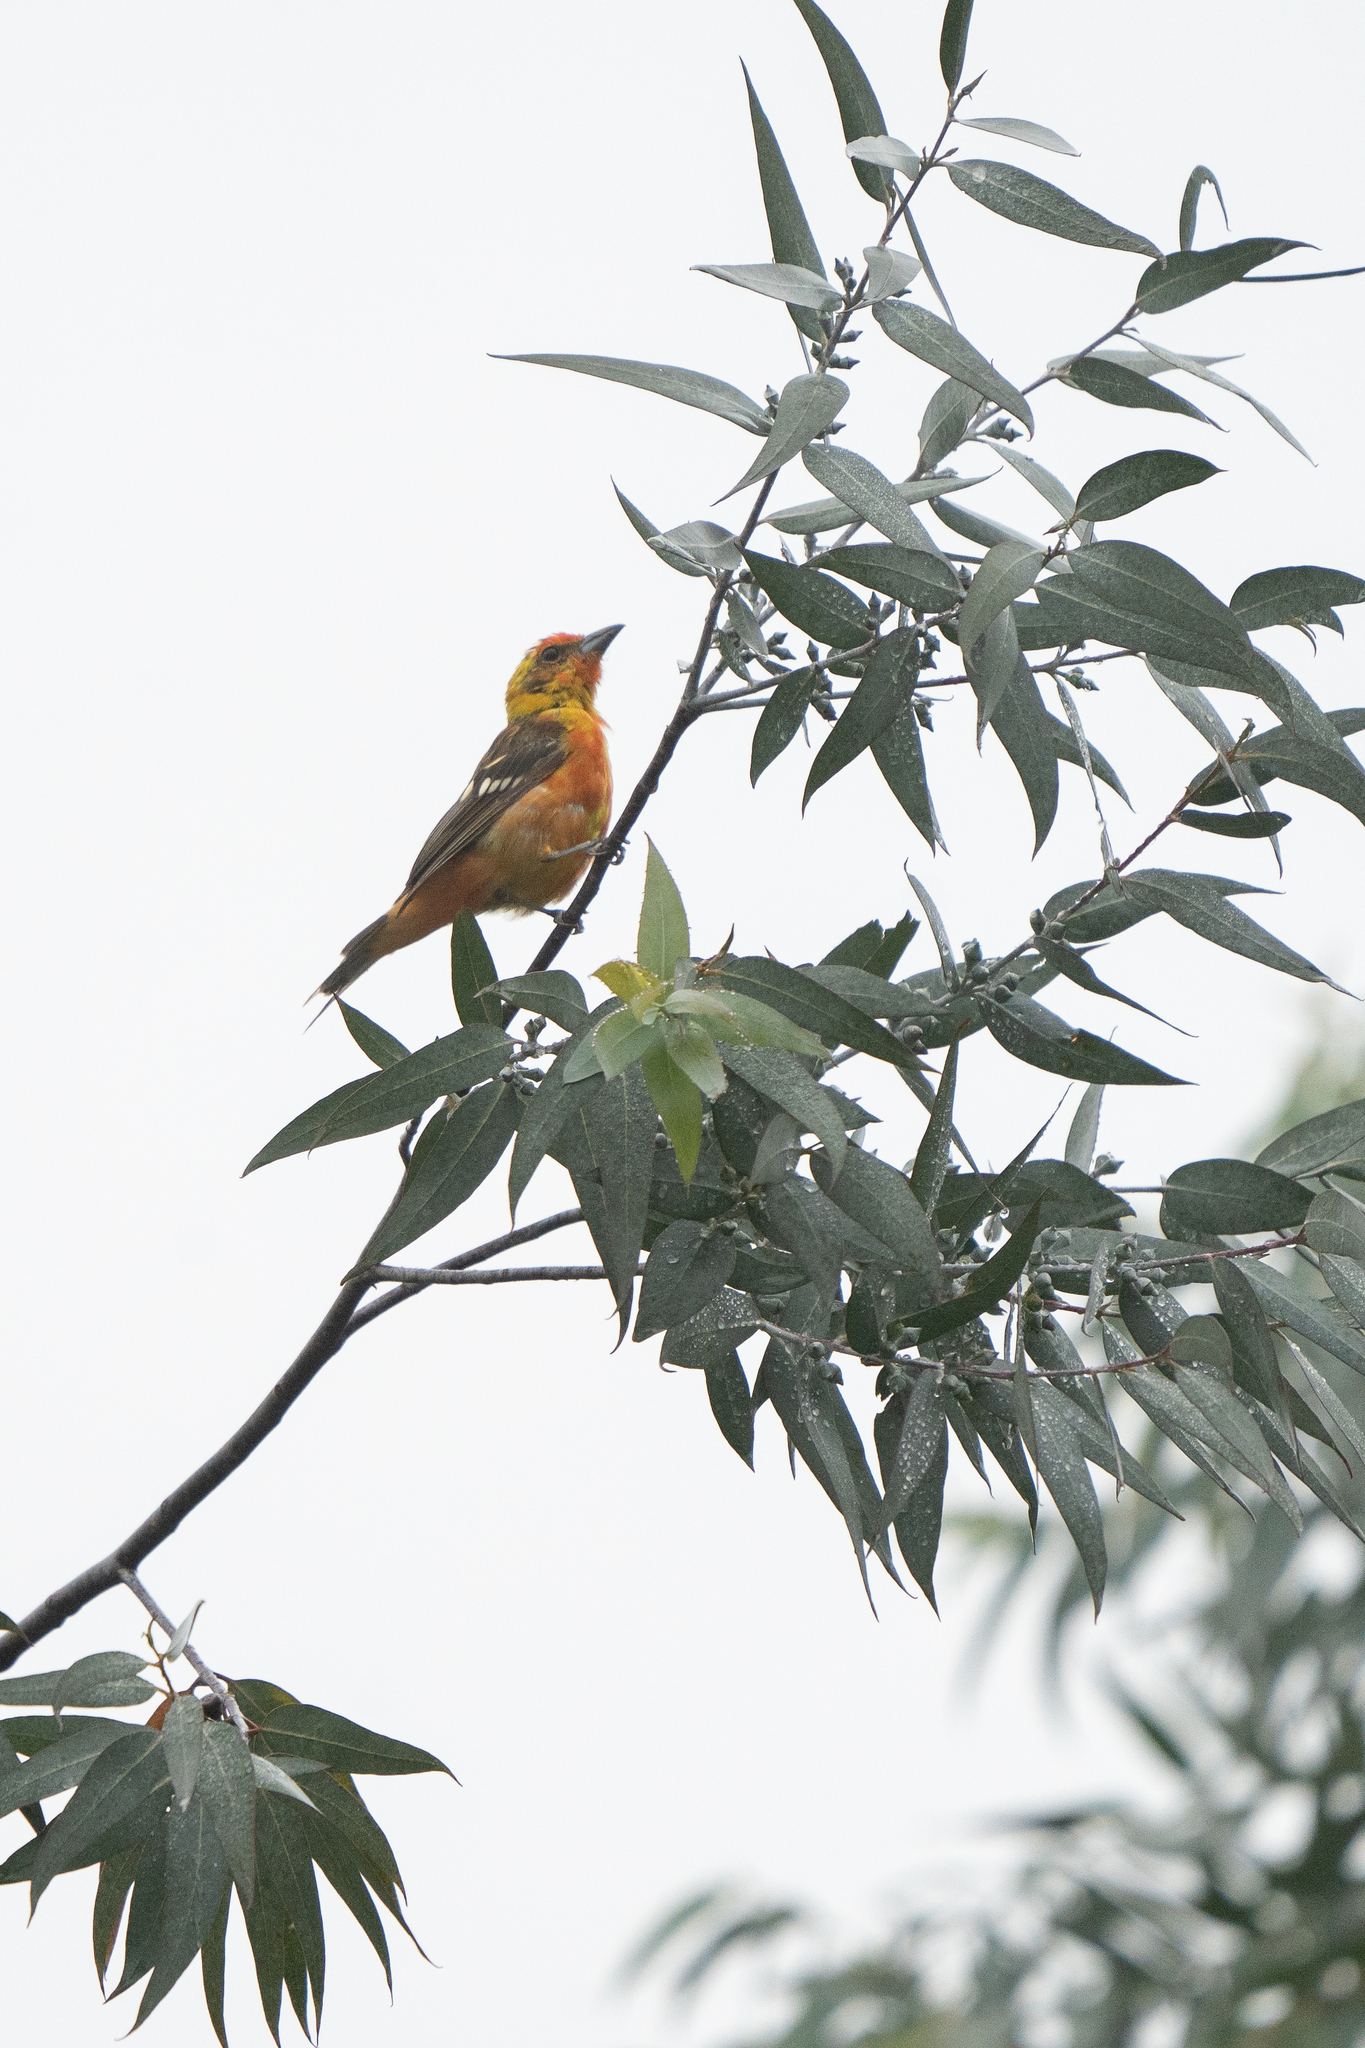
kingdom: Animalia
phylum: Chordata
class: Aves
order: Passeriformes
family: Cardinalidae
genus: Piranga
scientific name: Piranga bidentata
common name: Flame-colored tanager
